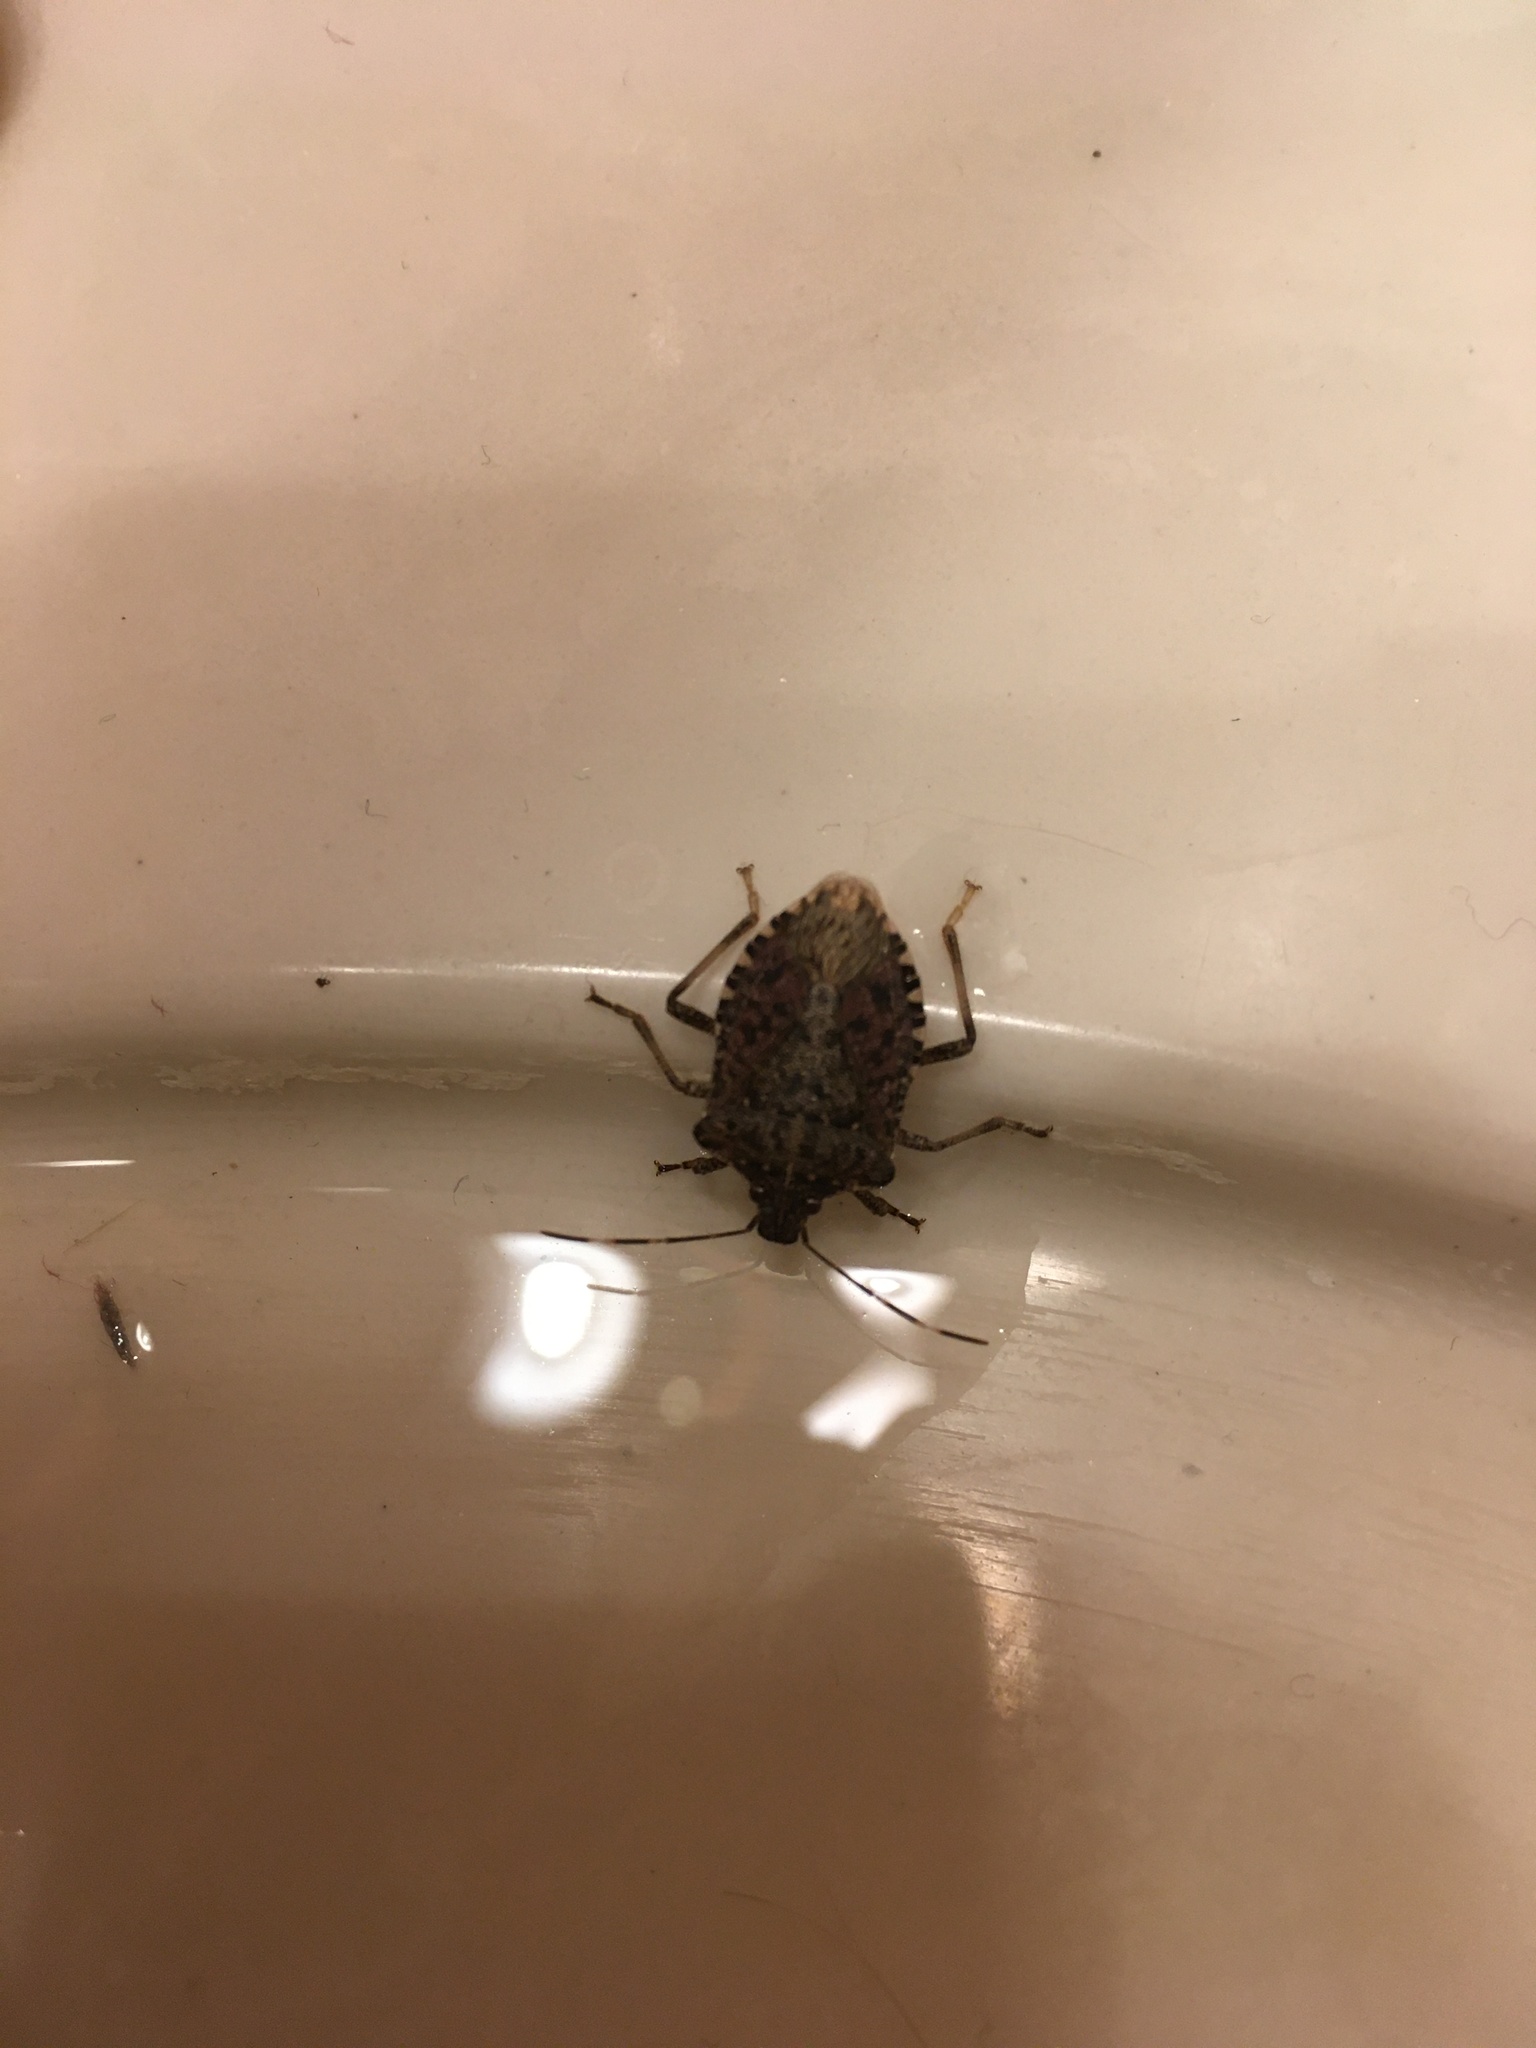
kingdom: Animalia
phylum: Arthropoda
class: Insecta
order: Hemiptera
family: Pentatomidae
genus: Halyomorpha
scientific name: Halyomorpha halys
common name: Brown marmorated stink bug
